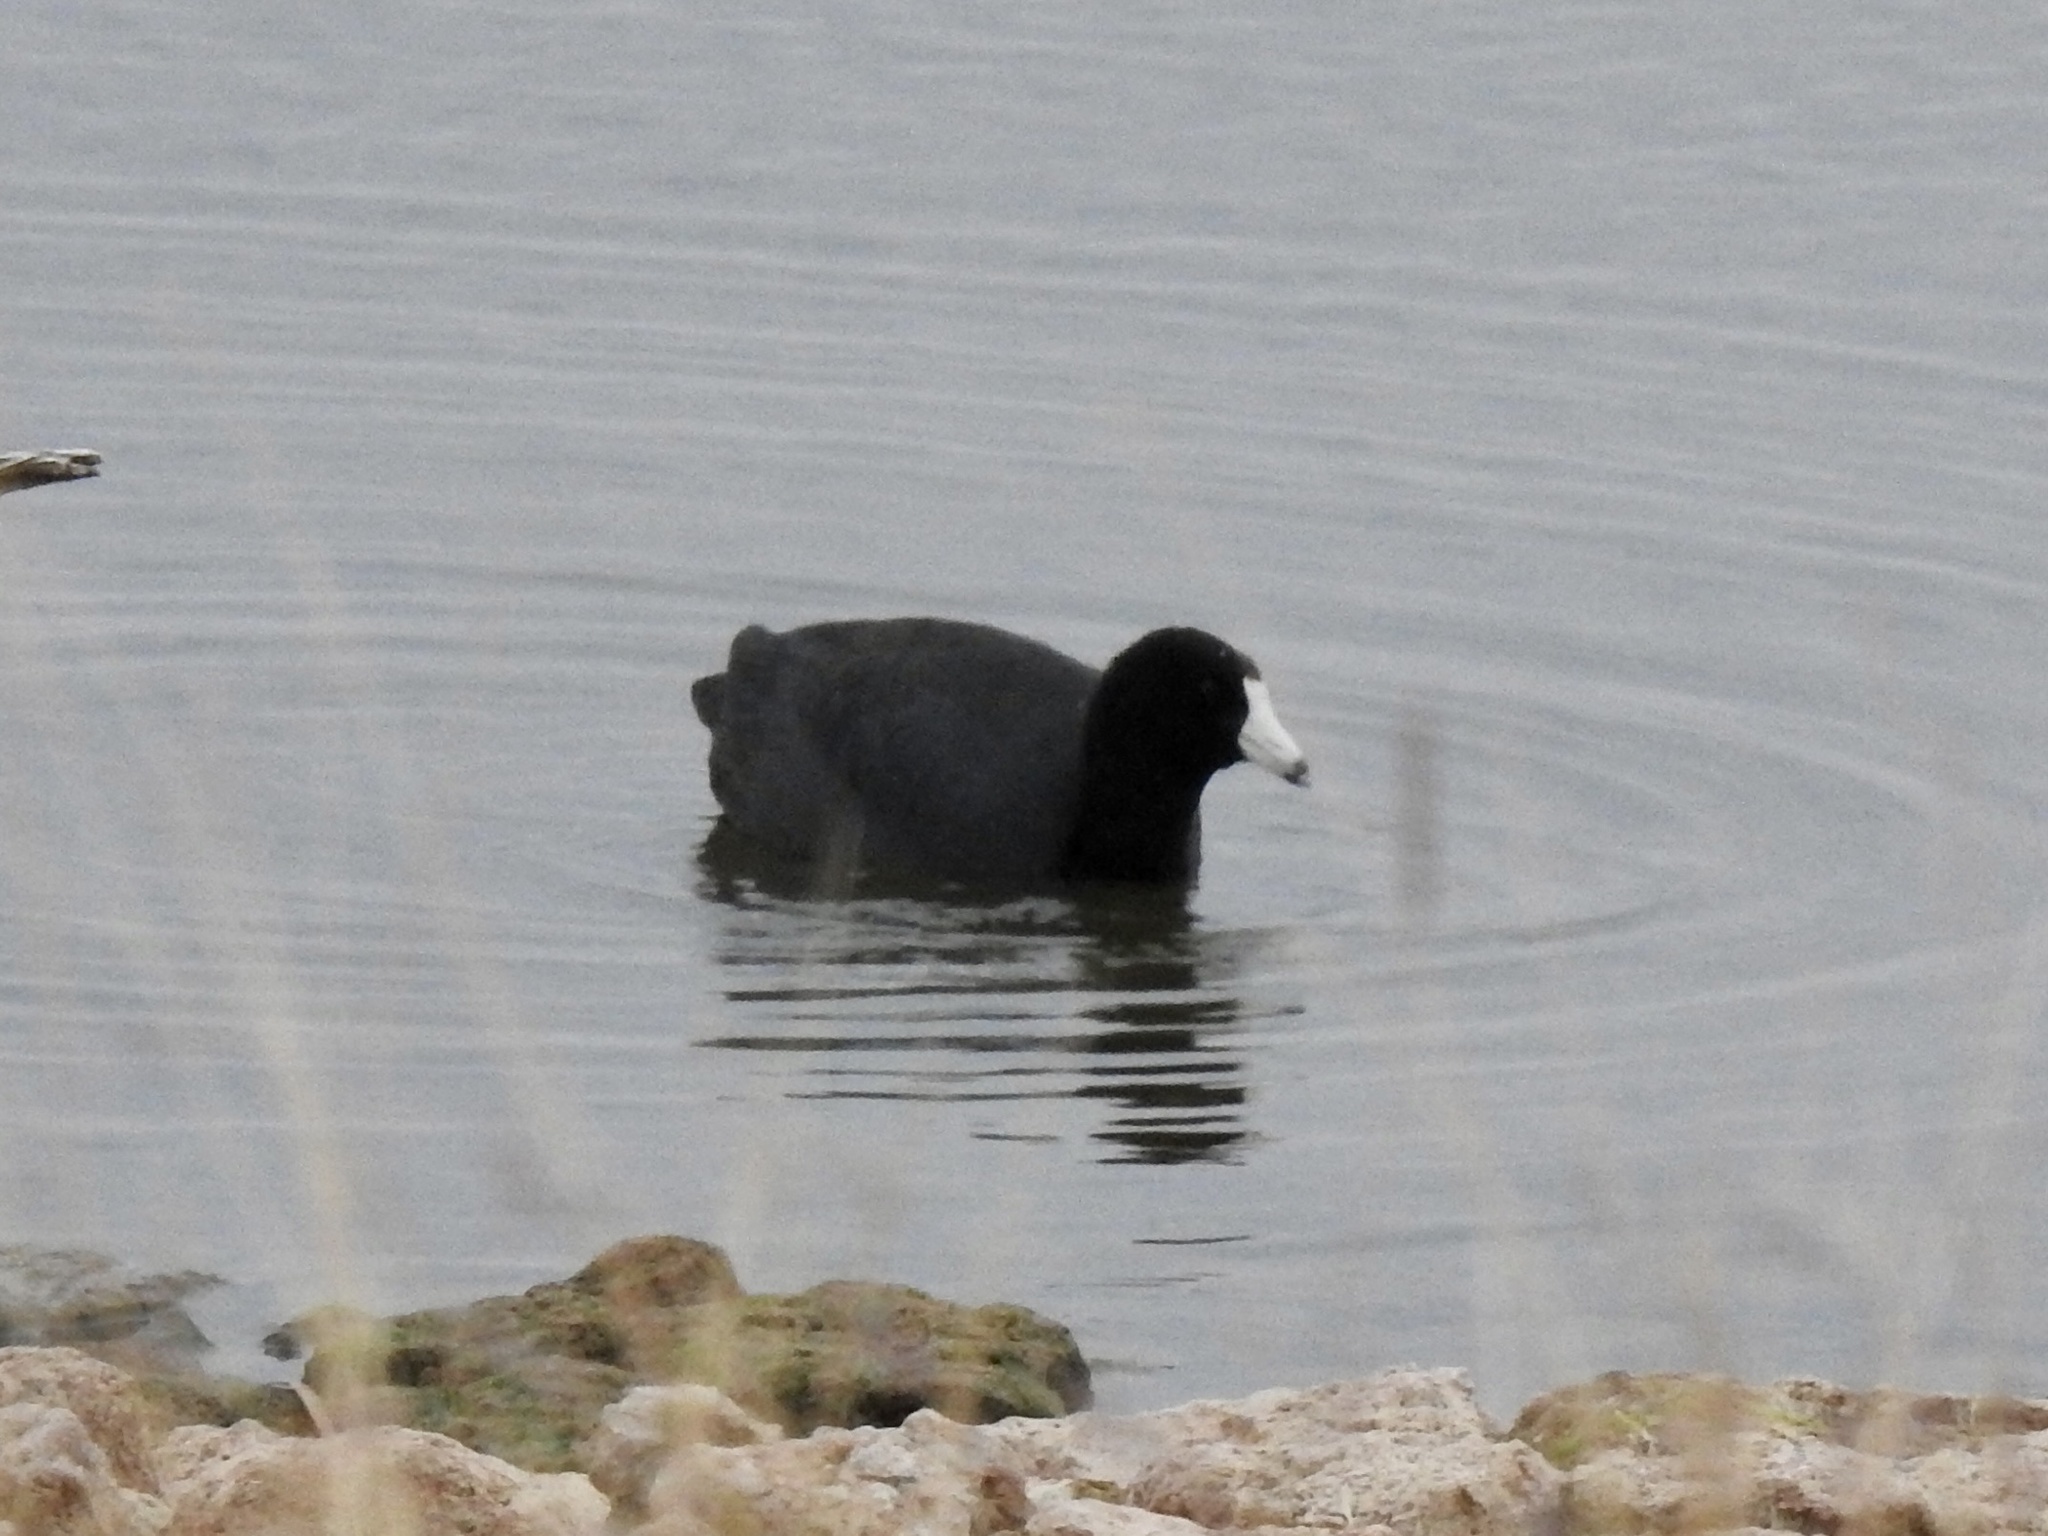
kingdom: Animalia
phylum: Chordata
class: Aves
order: Gruiformes
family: Rallidae
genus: Fulica
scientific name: Fulica americana
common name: American coot
